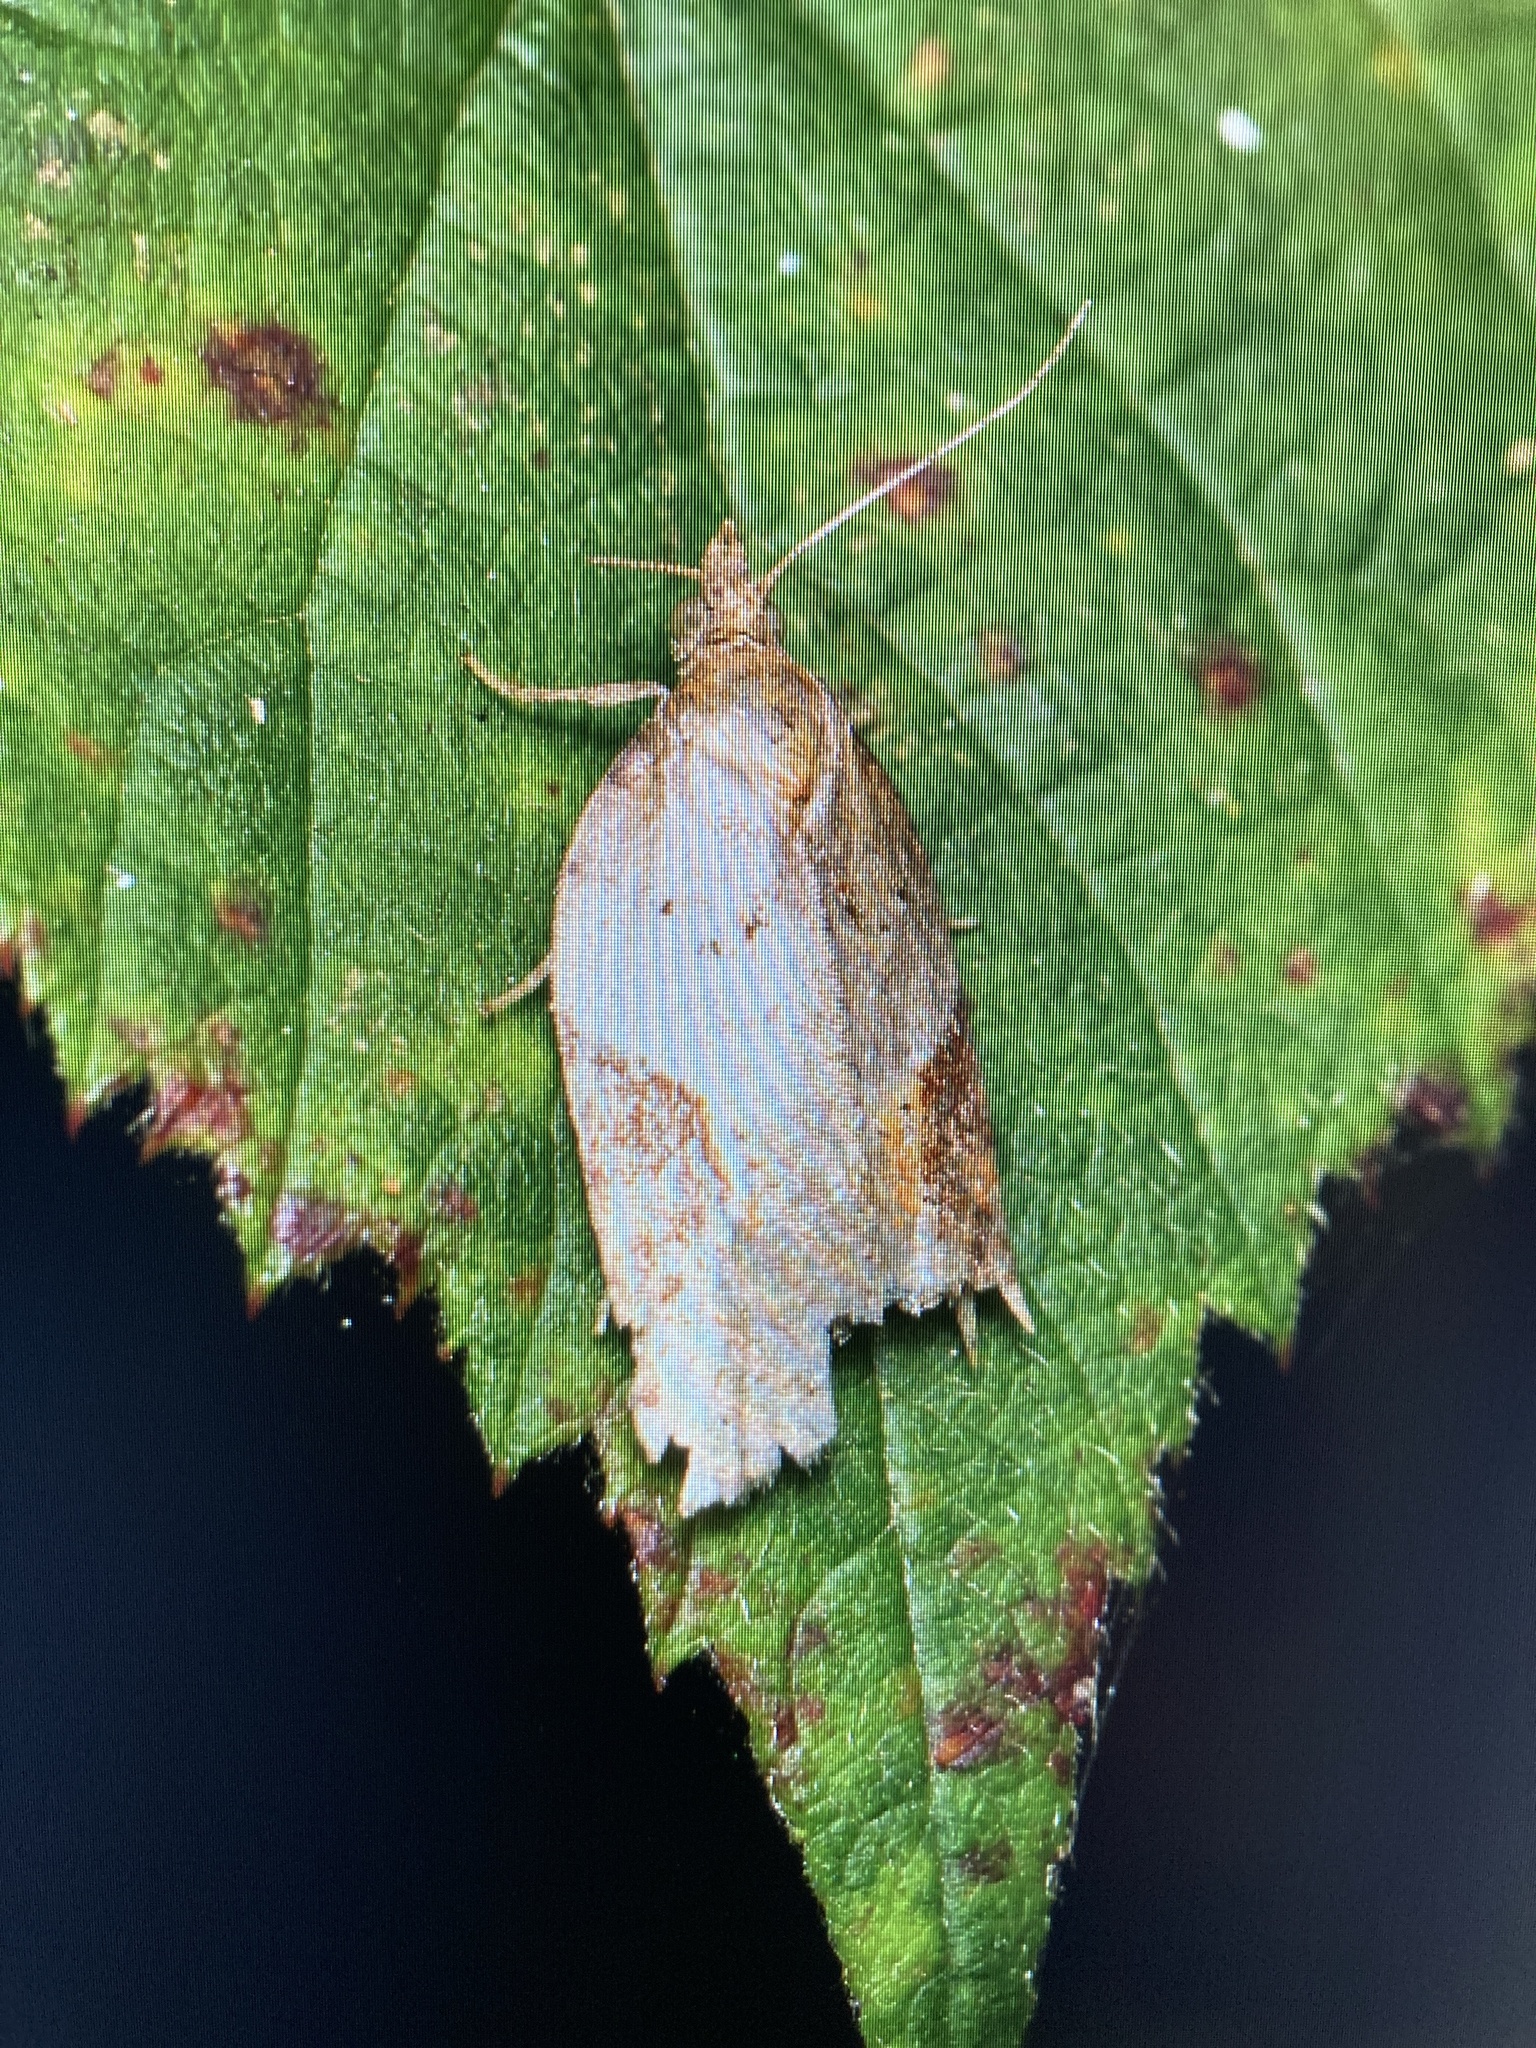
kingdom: Animalia
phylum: Arthropoda
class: Insecta
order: Lepidoptera
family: Tortricidae
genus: Acleris
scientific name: Acleris laterana
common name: Dark-triangle button
